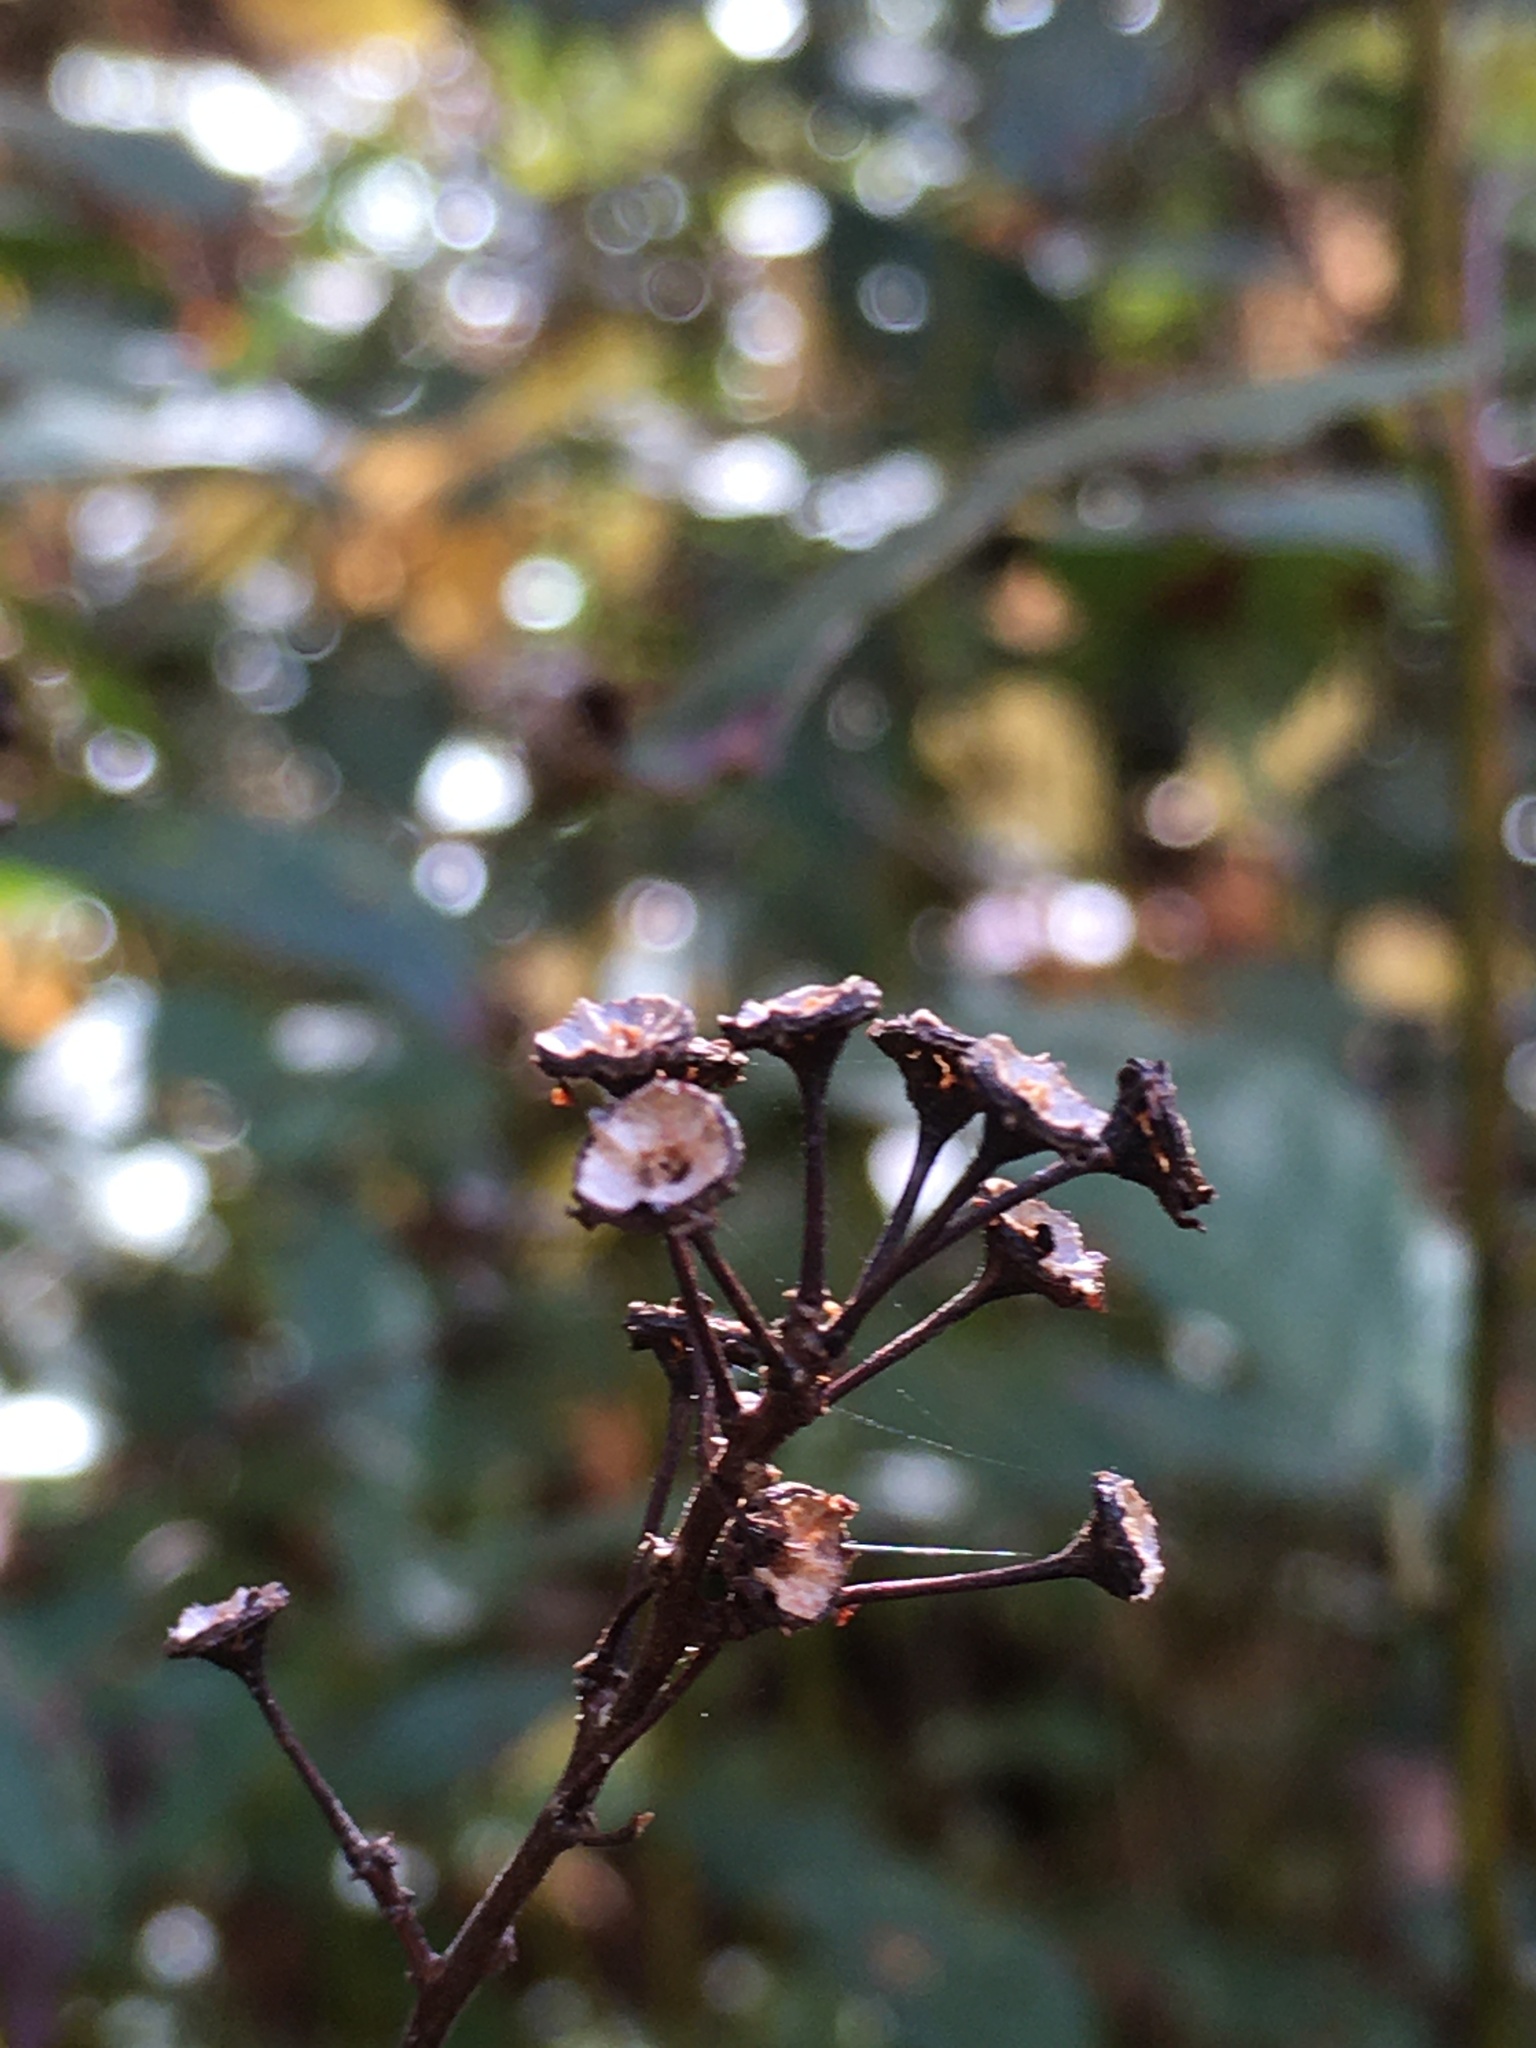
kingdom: Plantae
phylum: Tracheophyta
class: Magnoliopsida
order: Rosales
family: Rhamnaceae
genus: Ceanothus
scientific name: Ceanothus americanus
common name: Redroot
